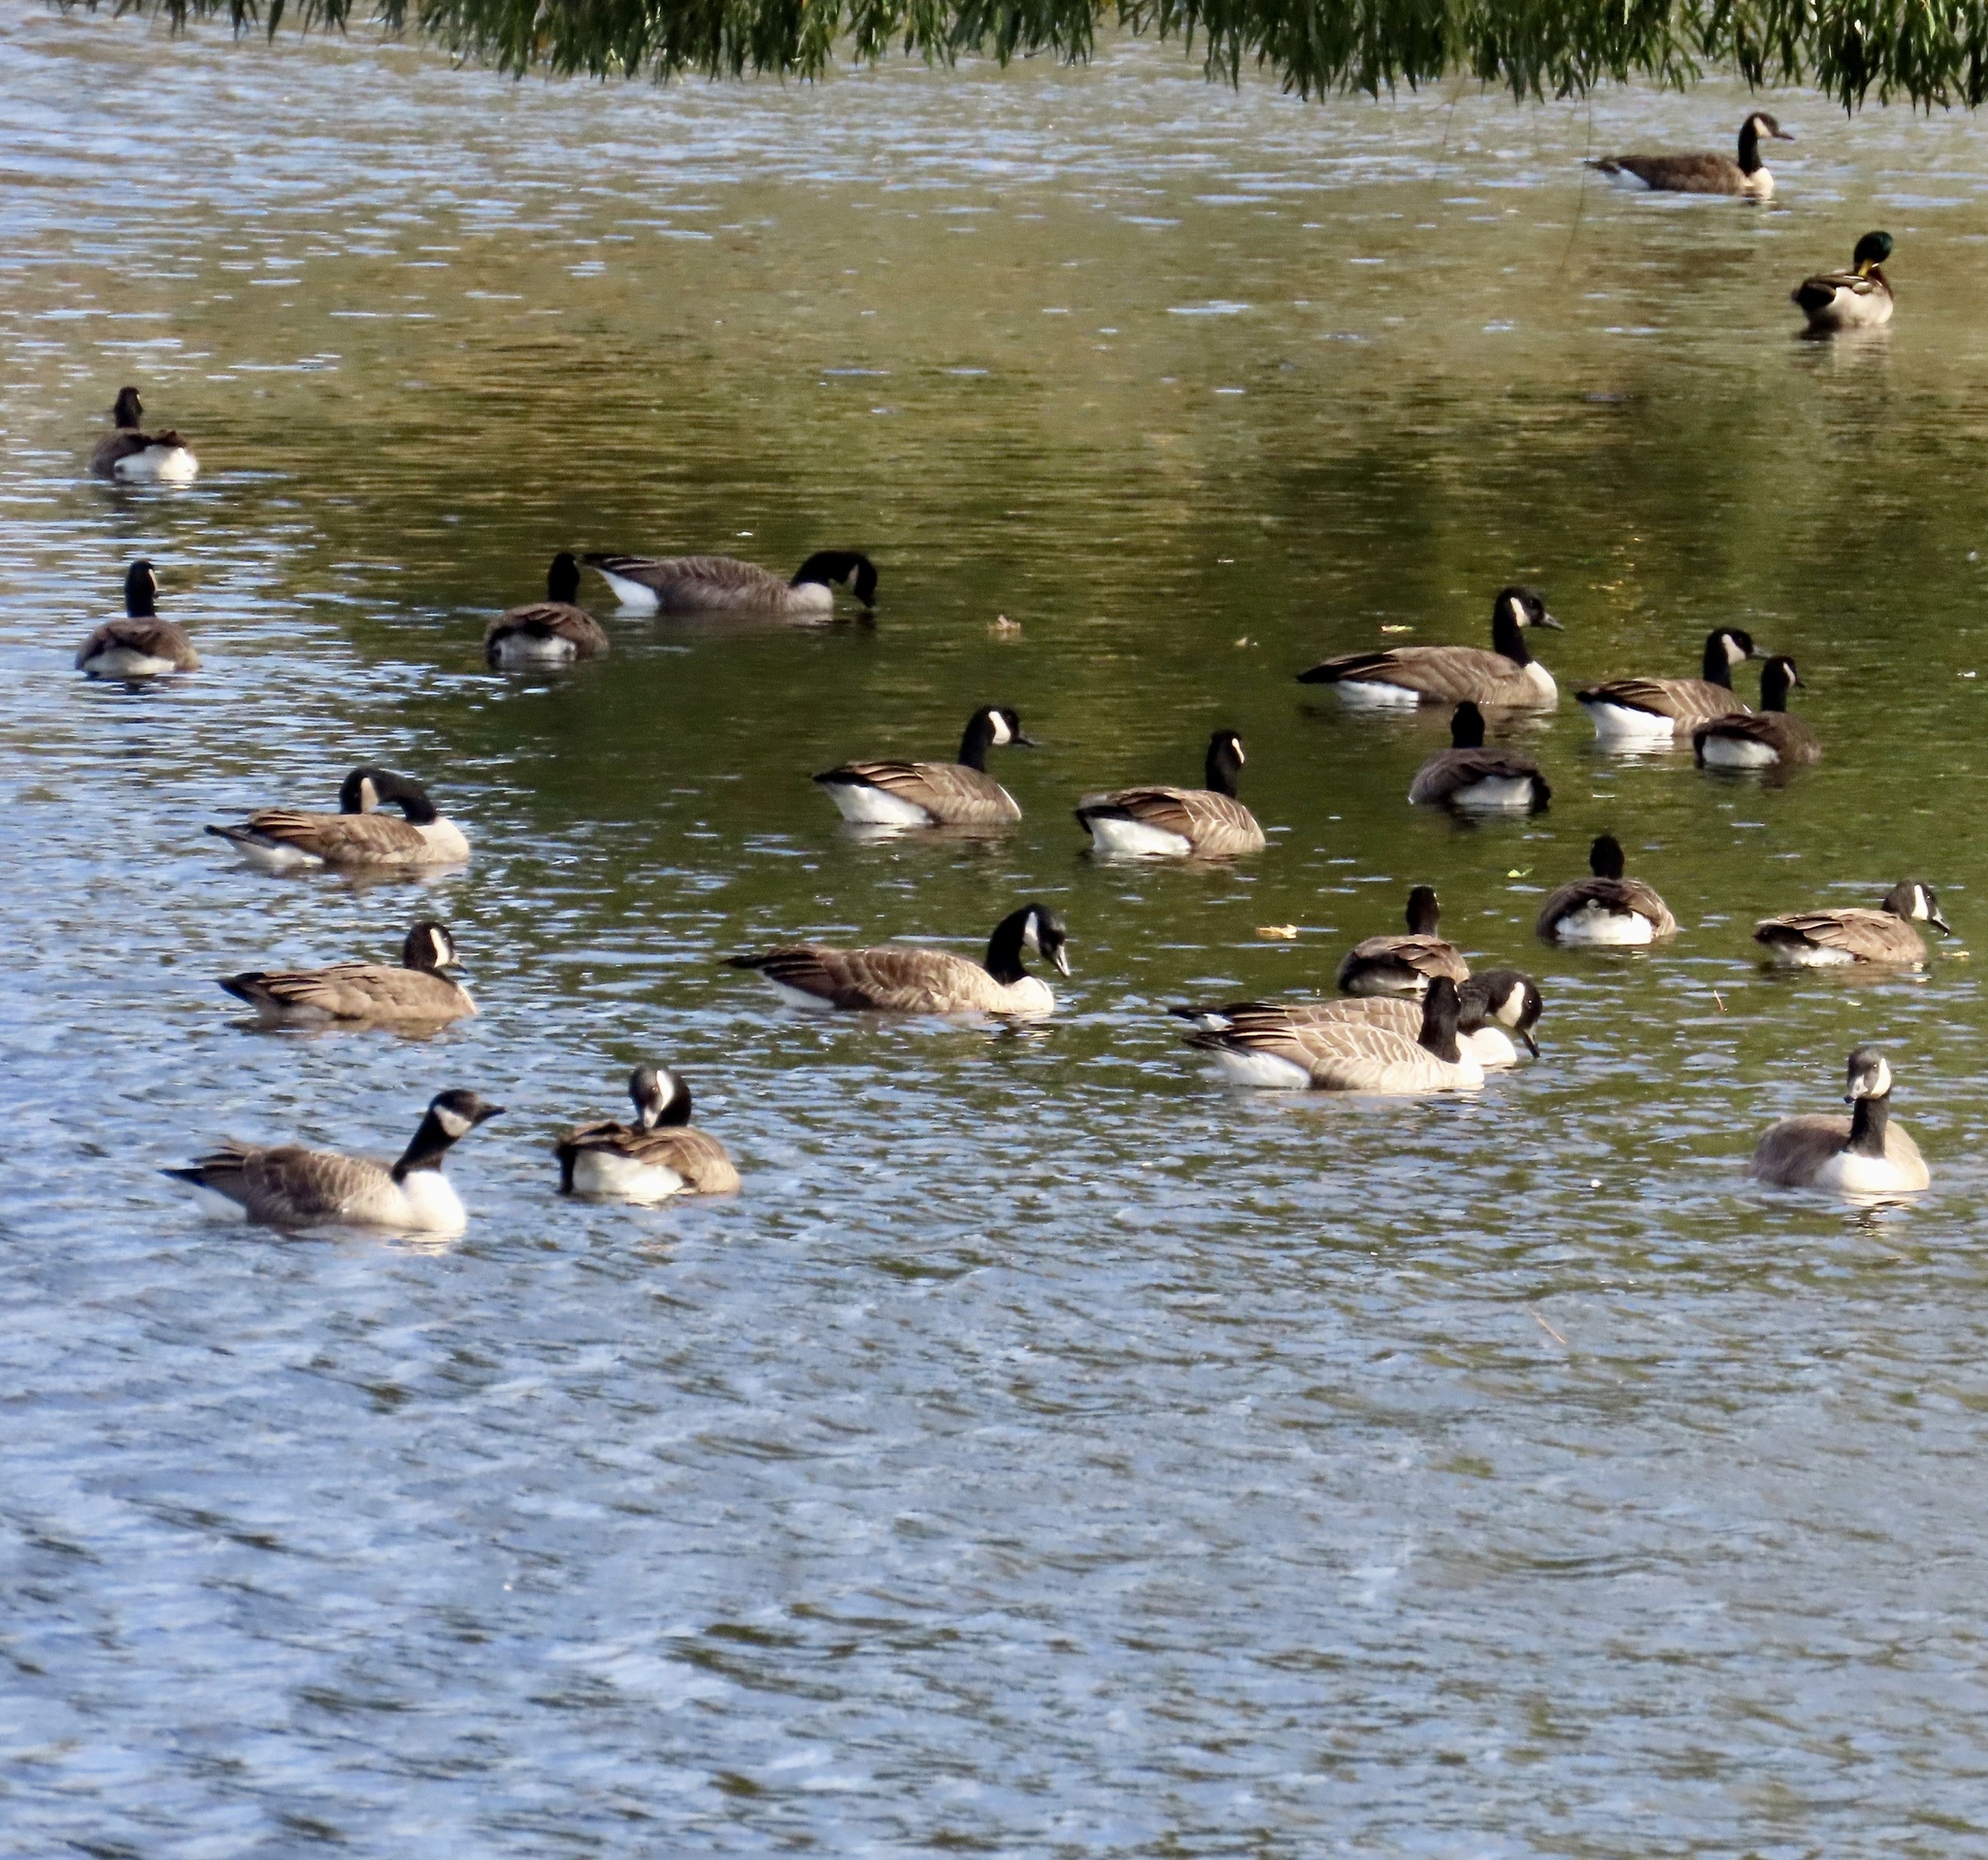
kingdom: Animalia
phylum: Chordata
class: Aves
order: Anseriformes
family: Anatidae
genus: Branta
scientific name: Branta canadensis
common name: Canada goose
